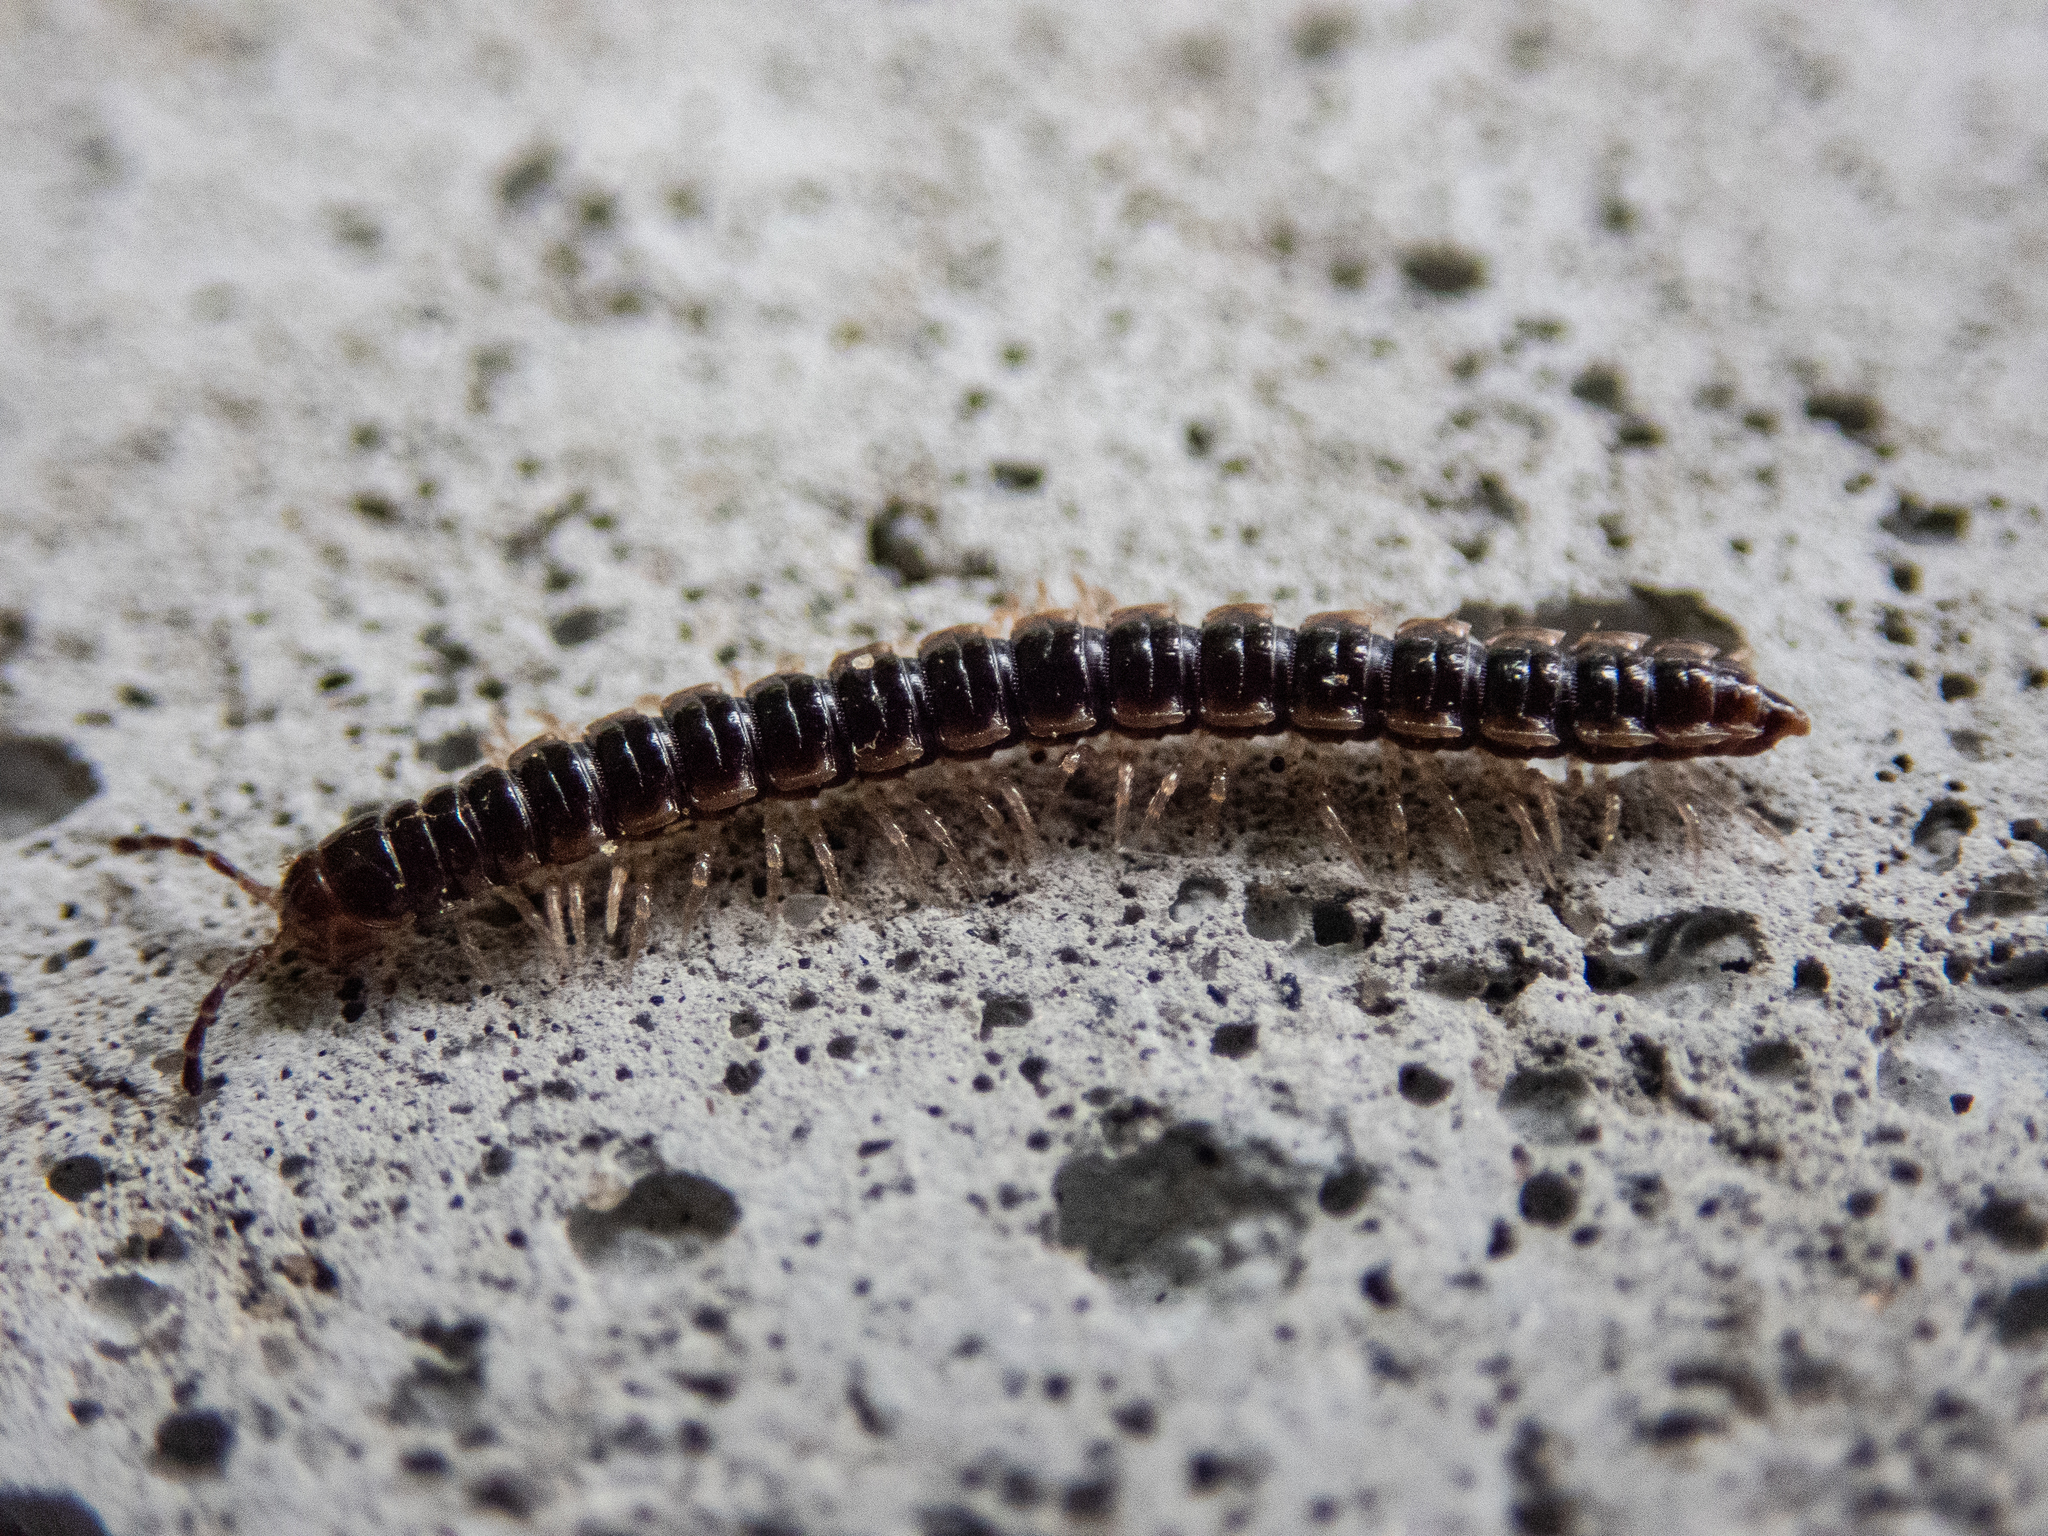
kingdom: Animalia
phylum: Arthropoda
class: Diplopoda
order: Polydesmida
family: Paradoxosomatidae
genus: Oxidus
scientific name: Oxidus gracilis
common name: Greenhouse millipede
